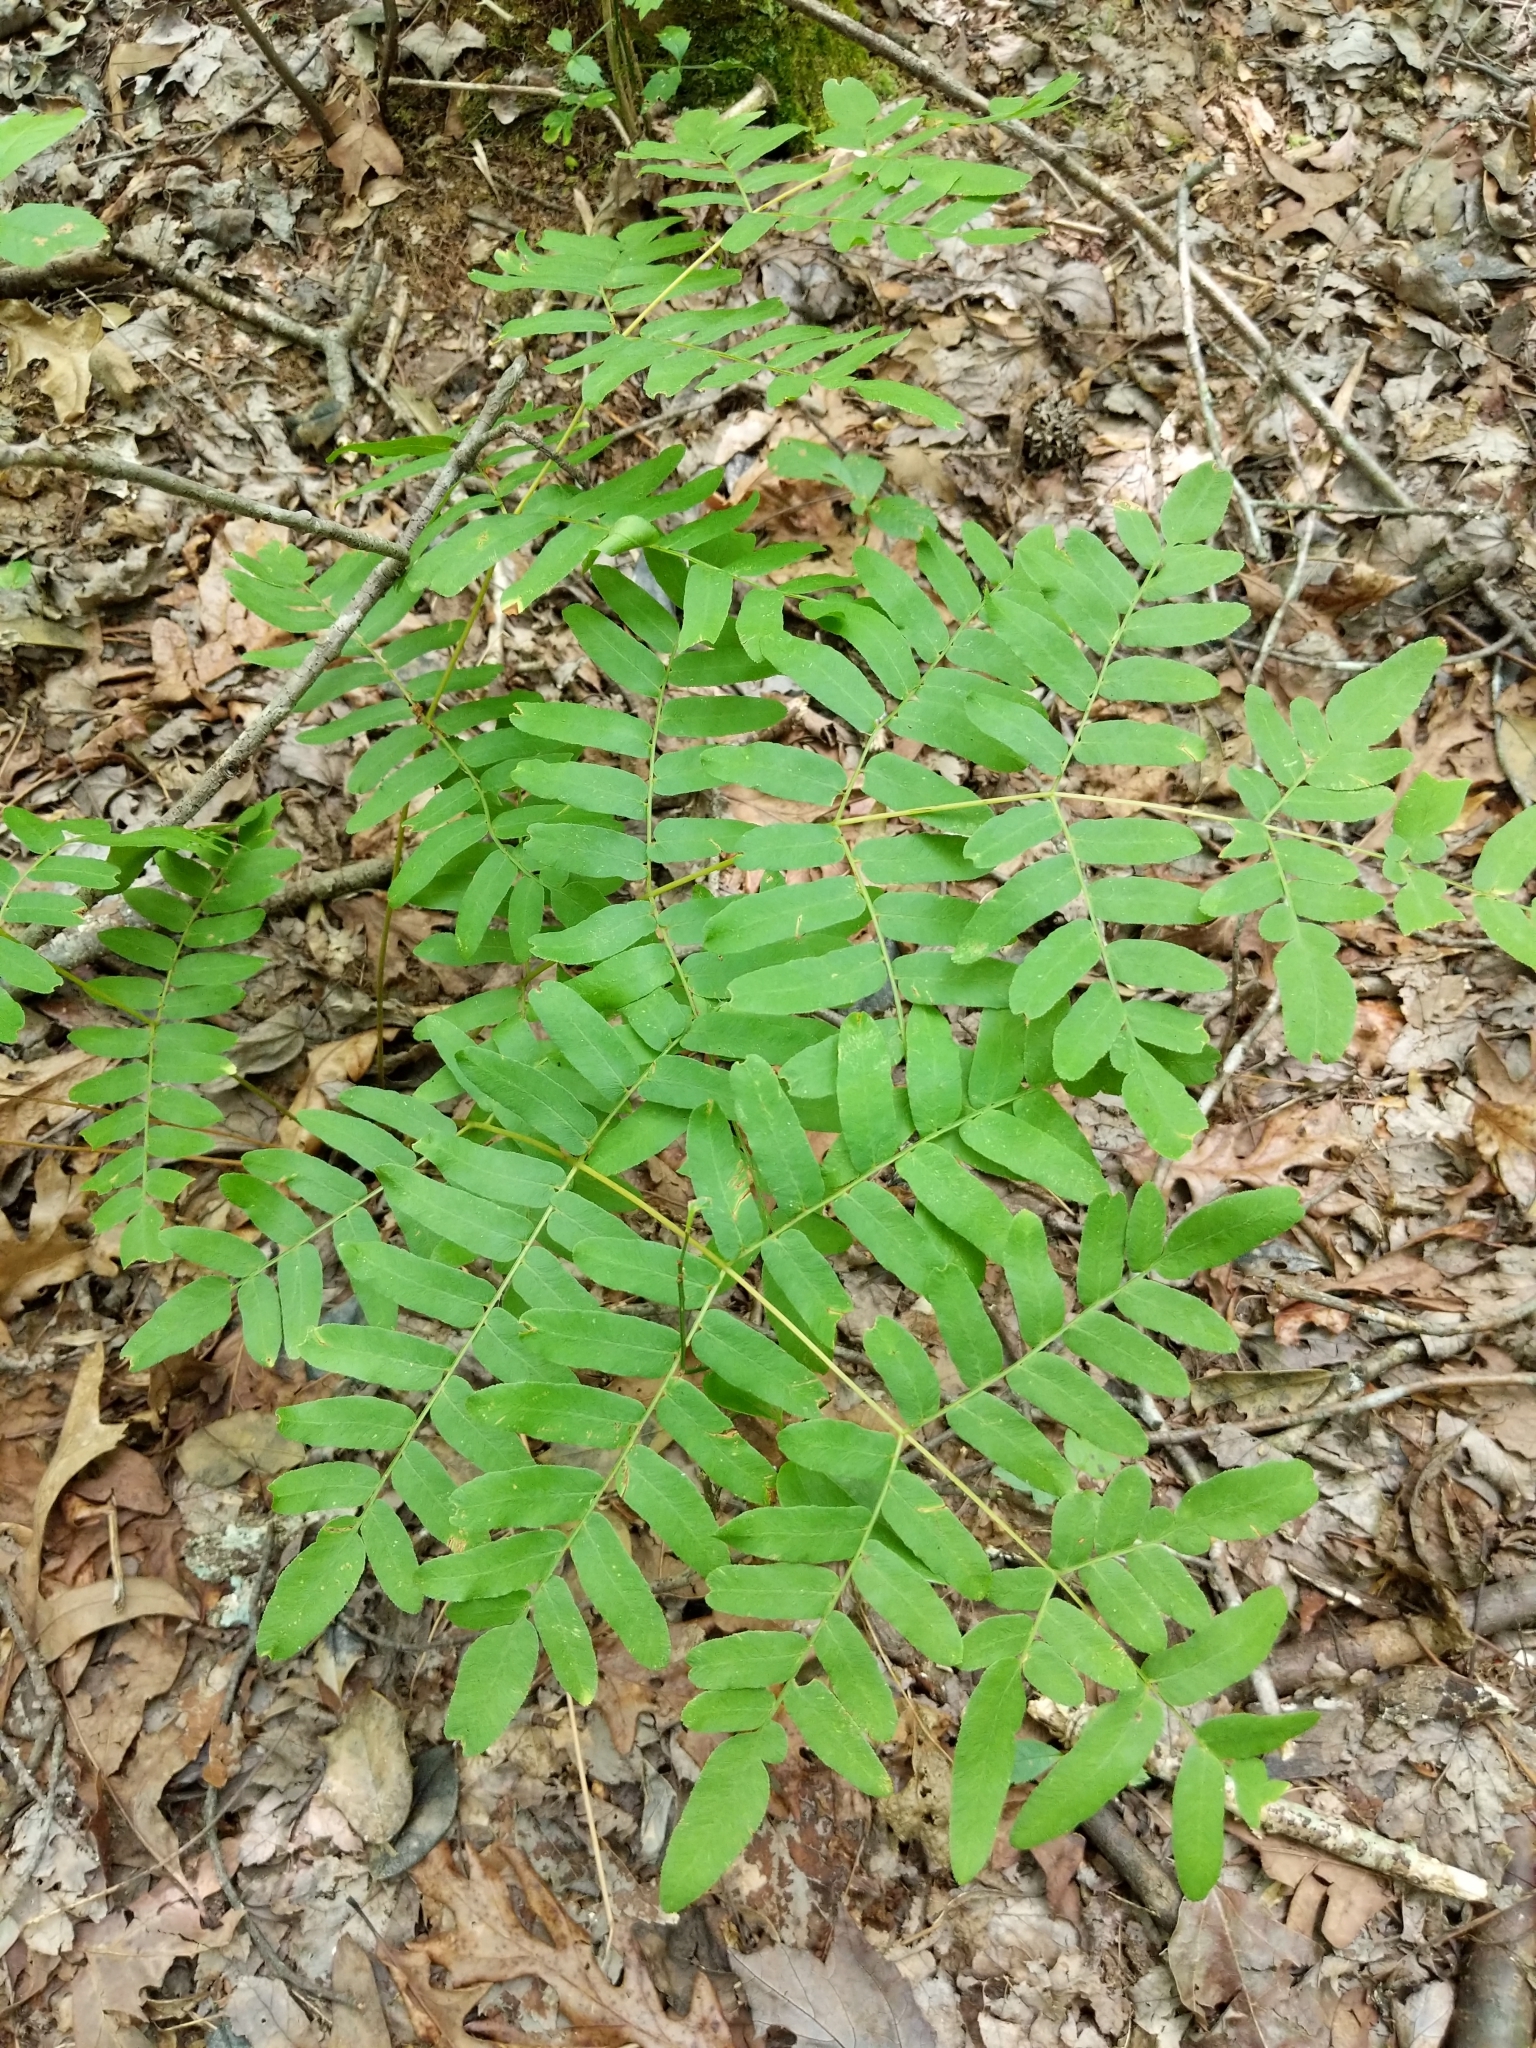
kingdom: Plantae
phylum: Tracheophyta
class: Polypodiopsida
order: Osmundales
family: Osmundaceae
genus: Osmunda
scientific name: Osmunda spectabilis
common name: American royal fern
